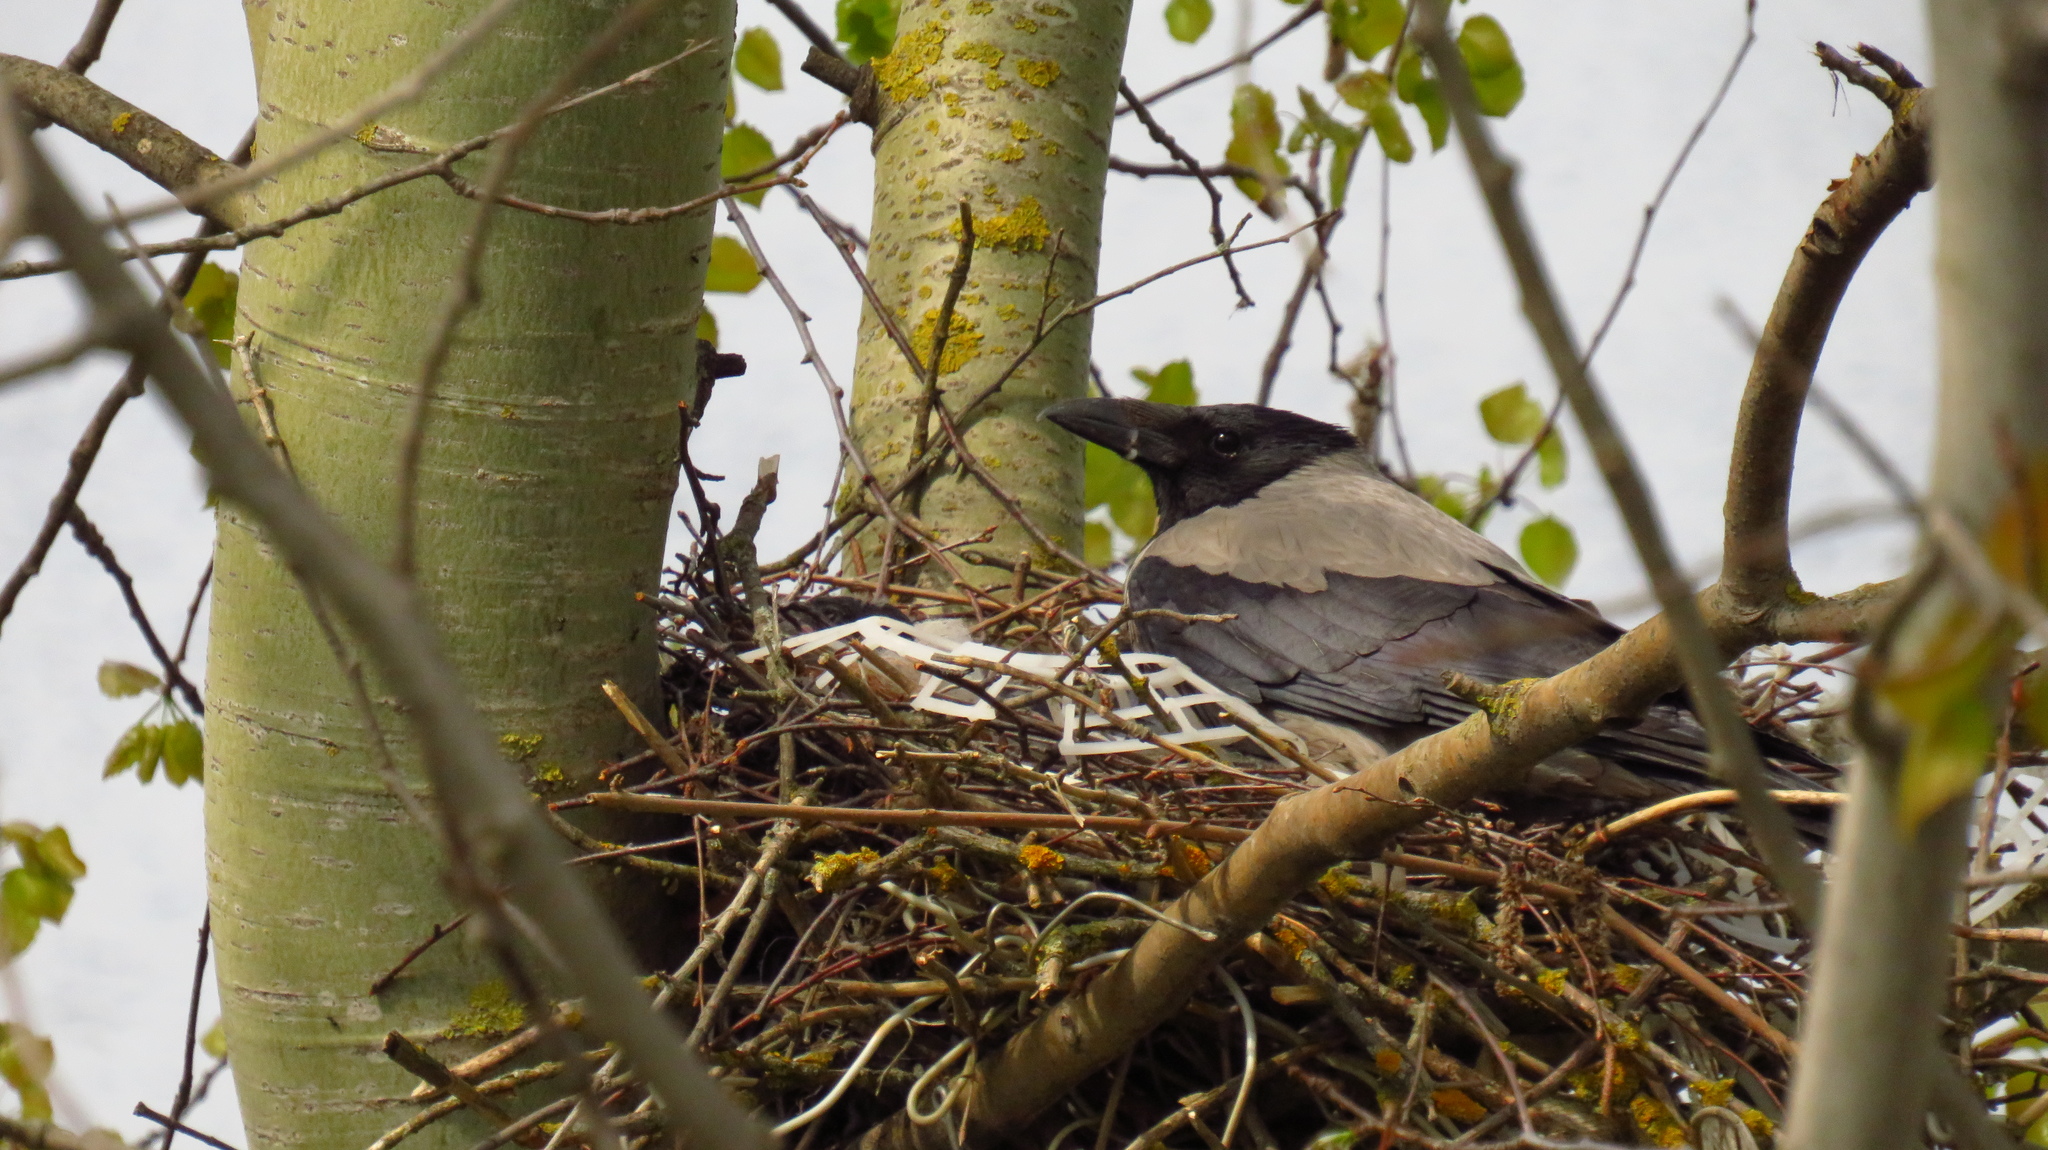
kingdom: Animalia
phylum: Chordata
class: Aves
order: Passeriformes
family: Corvidae
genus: Corvus
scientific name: Corvus cornix
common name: Hooded crow
